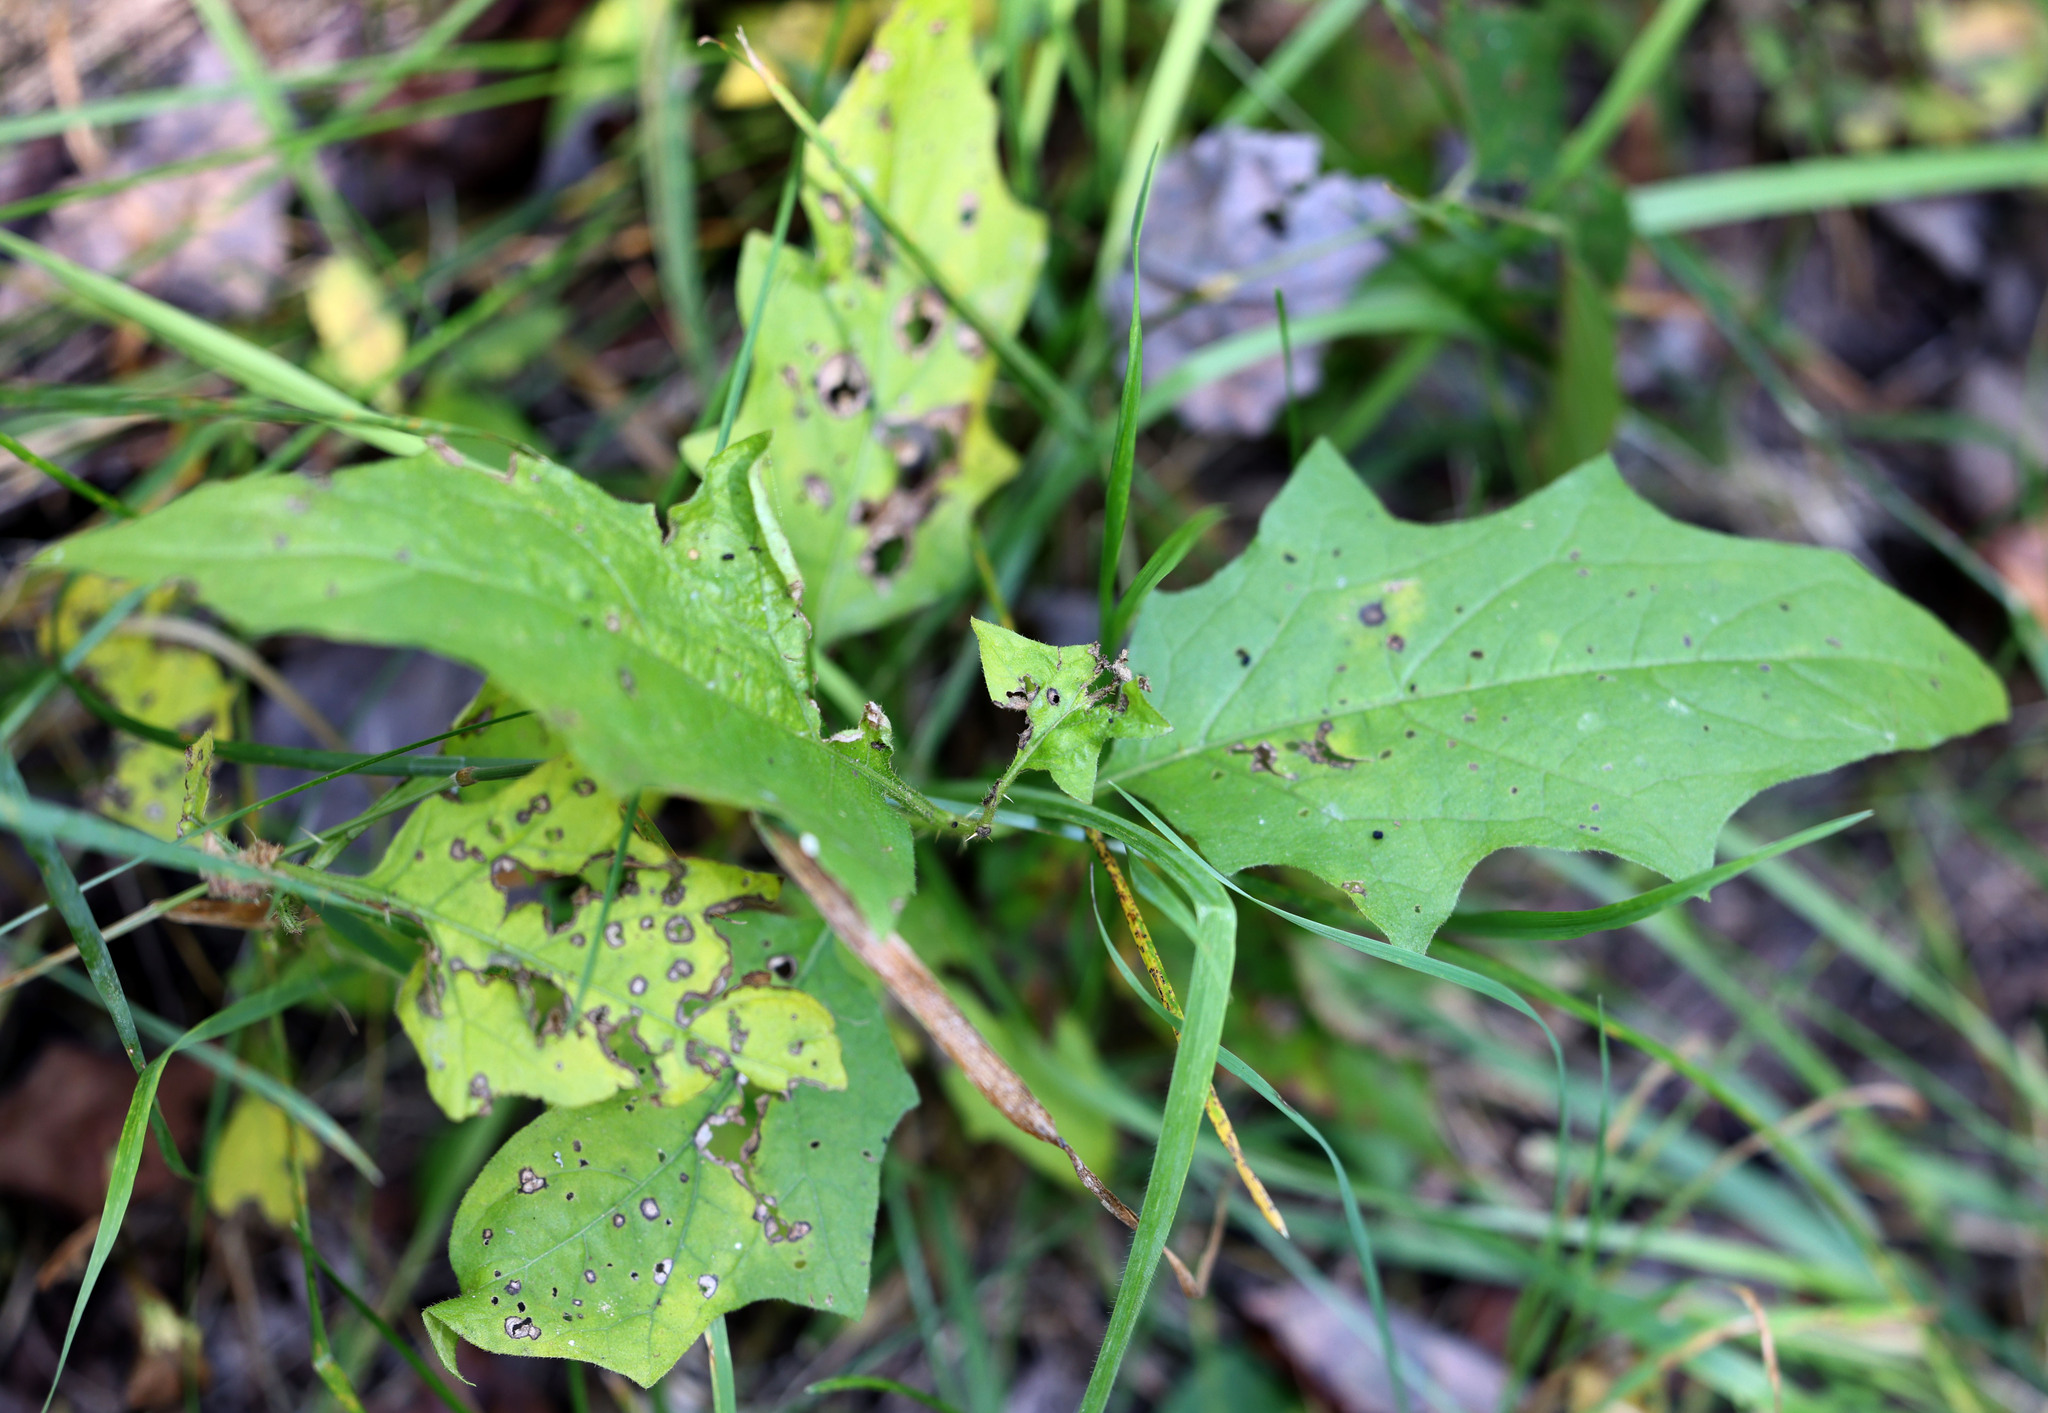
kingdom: Plantae
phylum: Tracheophyta
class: Magnoliopsida
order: Solanales
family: Solanaceae
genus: Solanum
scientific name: Solanum carolinense
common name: Horse-nettle
